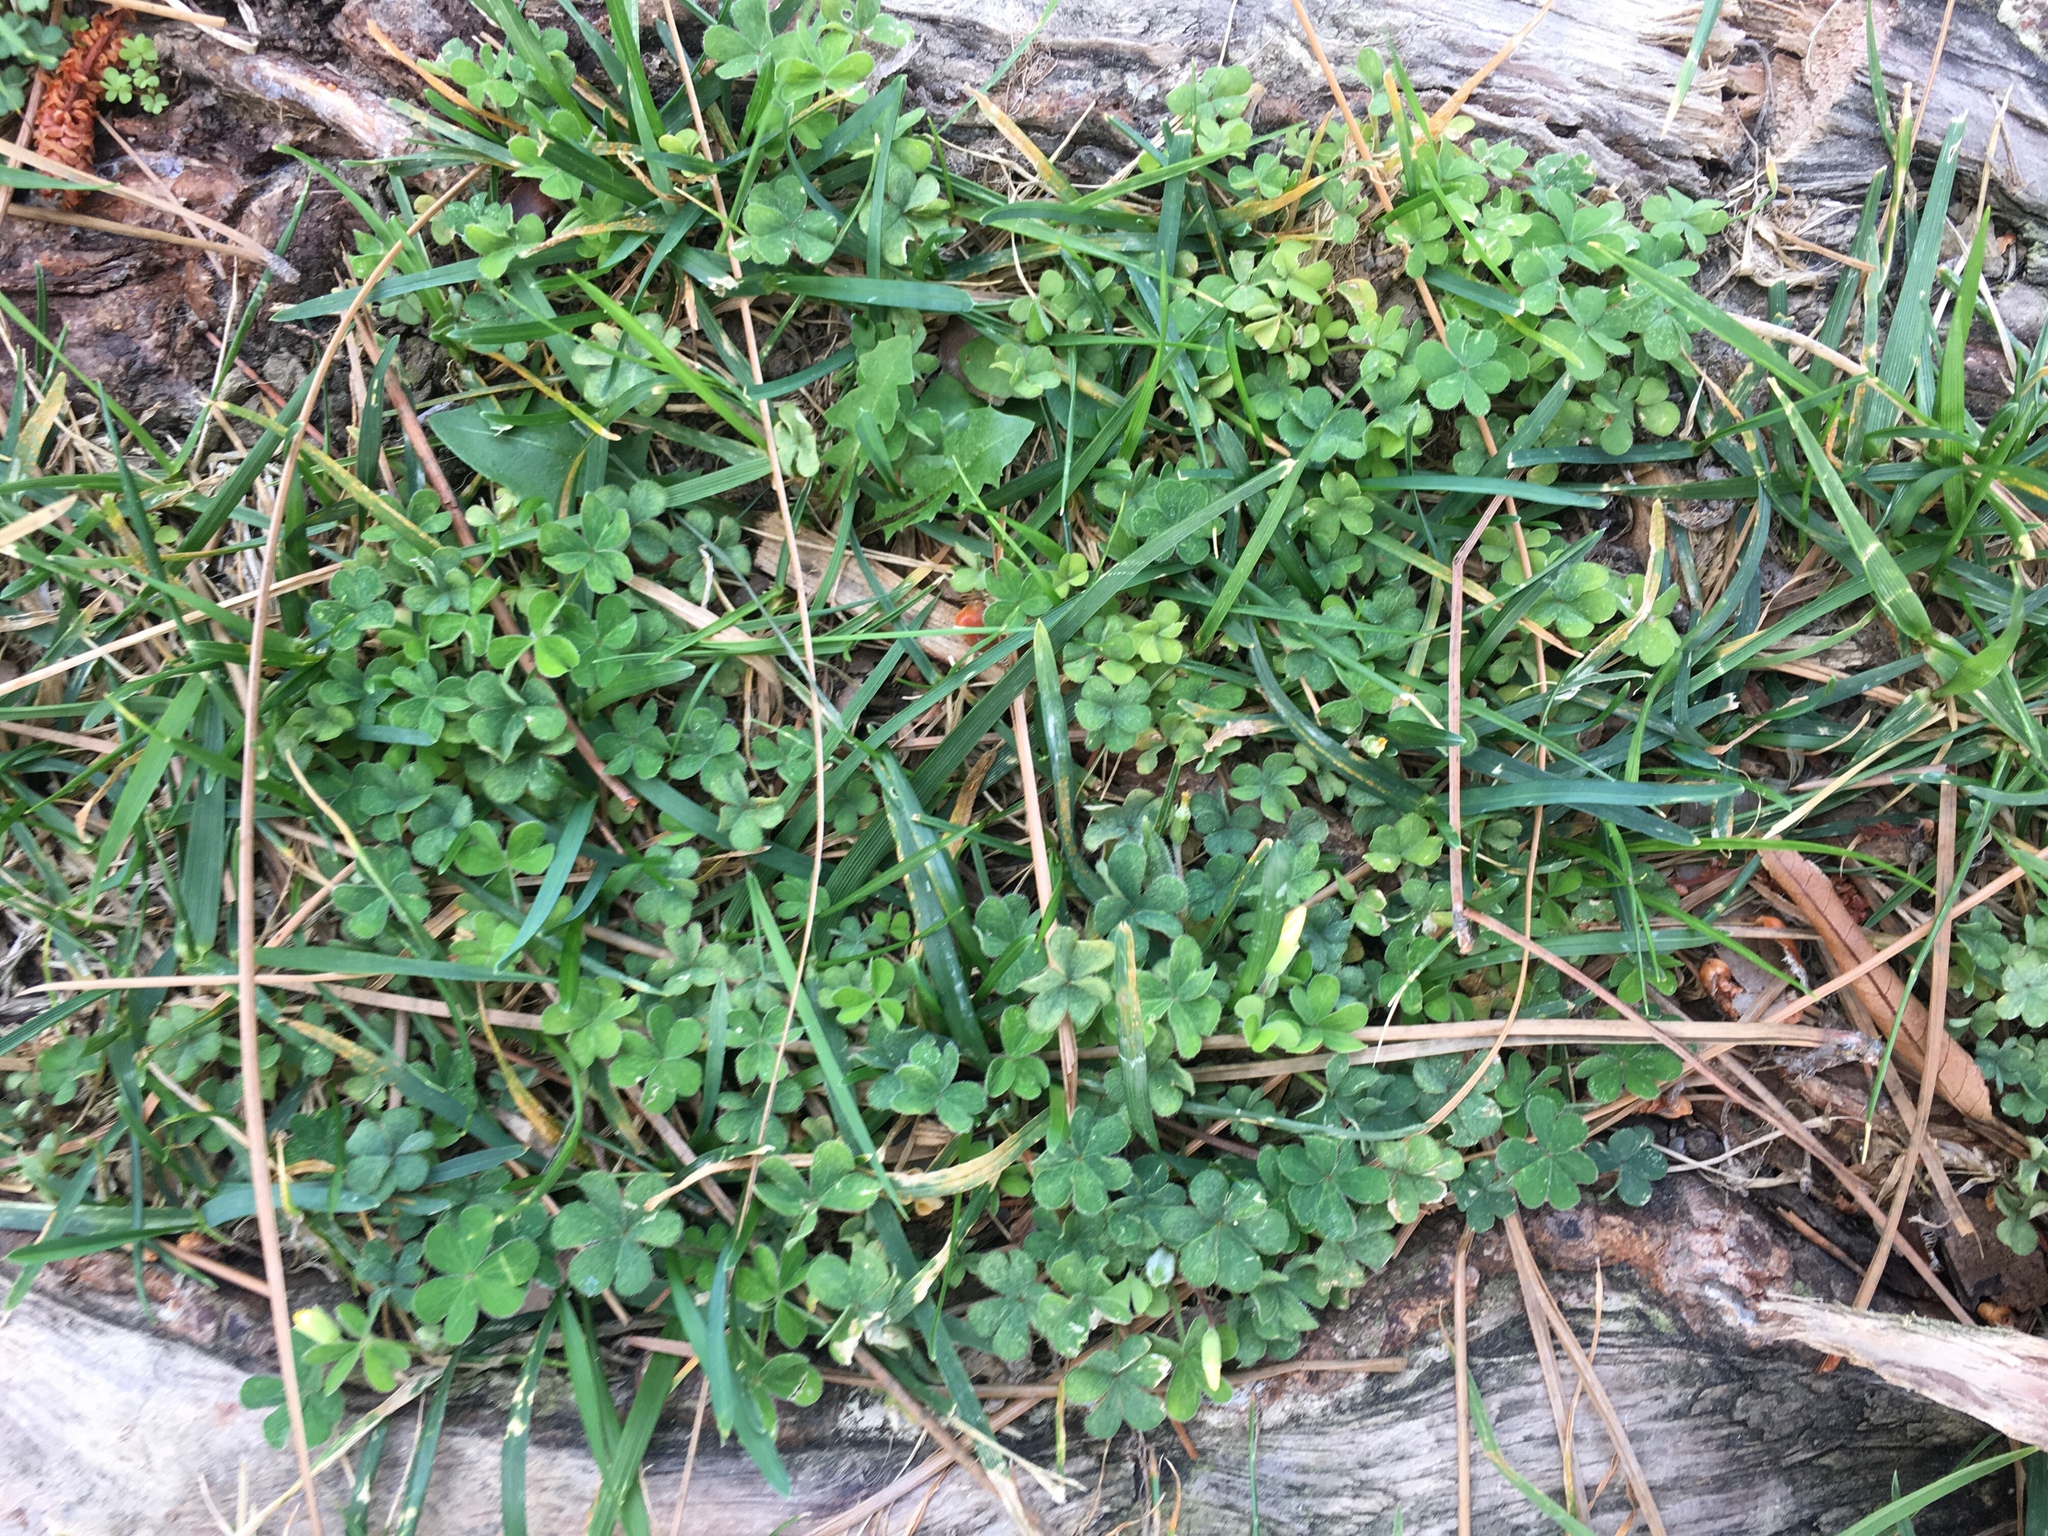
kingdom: Plantae
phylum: Tracheophyta
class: Magnoliopsida
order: Oxalidales
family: Oxalidaceae
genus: Oxalis
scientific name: Oxalis corniculata
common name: Procumbent yellow-sorrel
